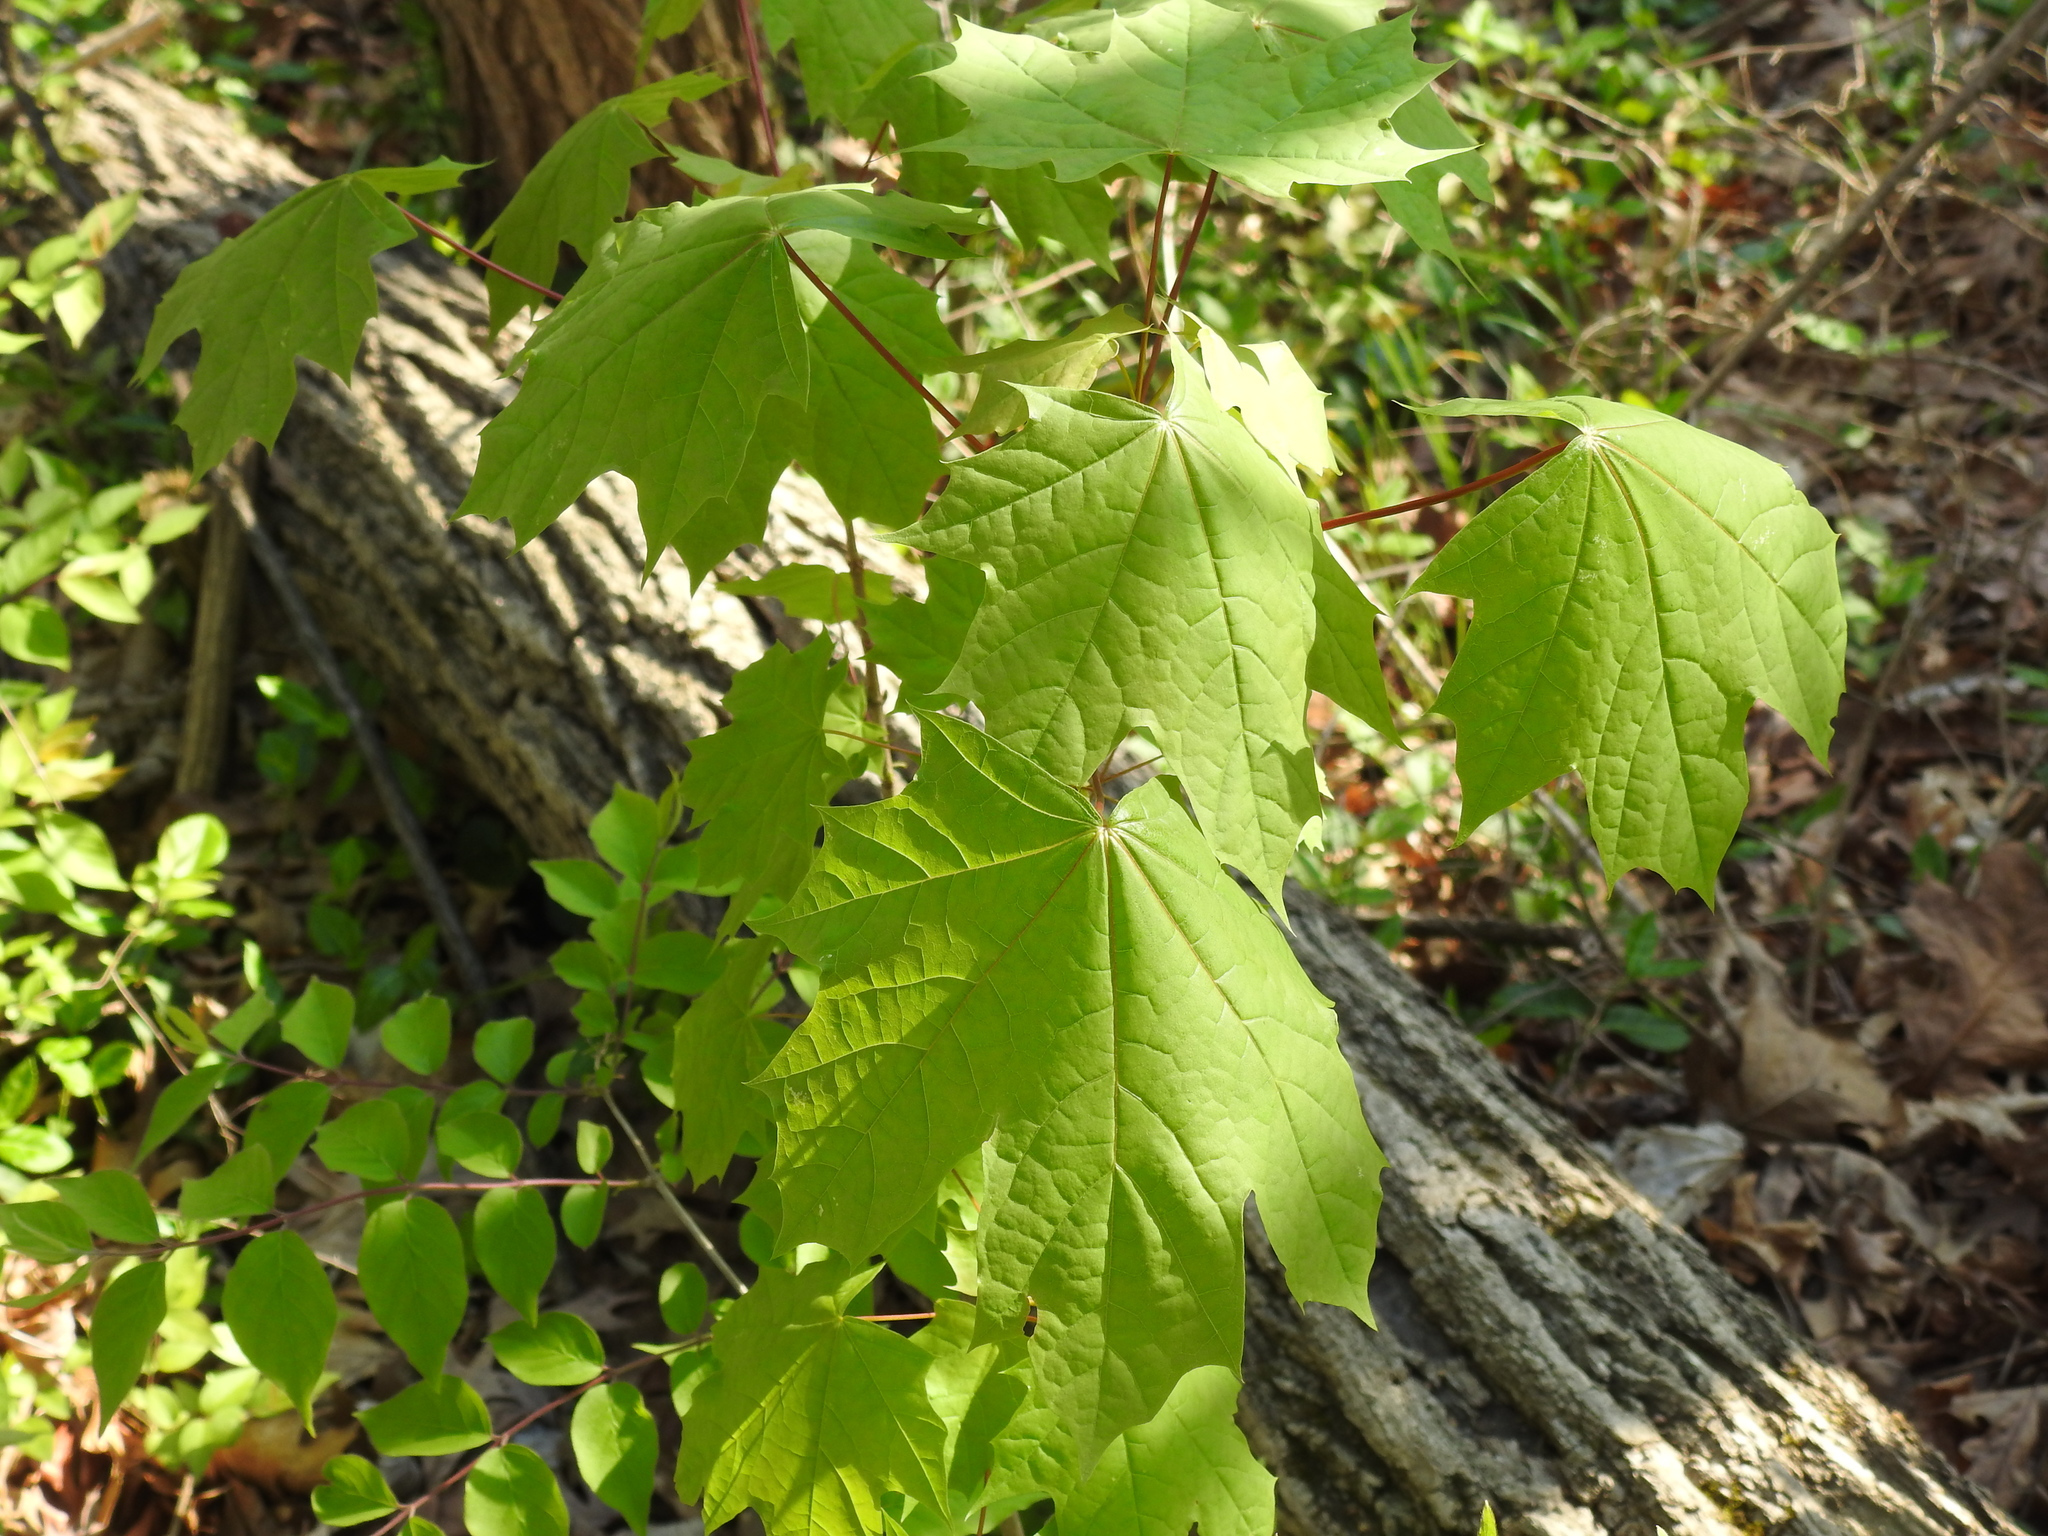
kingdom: Plantae
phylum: Tracheophyta
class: Magnoliopsida
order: Sapindales
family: Sapindaceae
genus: Acer
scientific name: Acer saccharum
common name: Sugar maple
